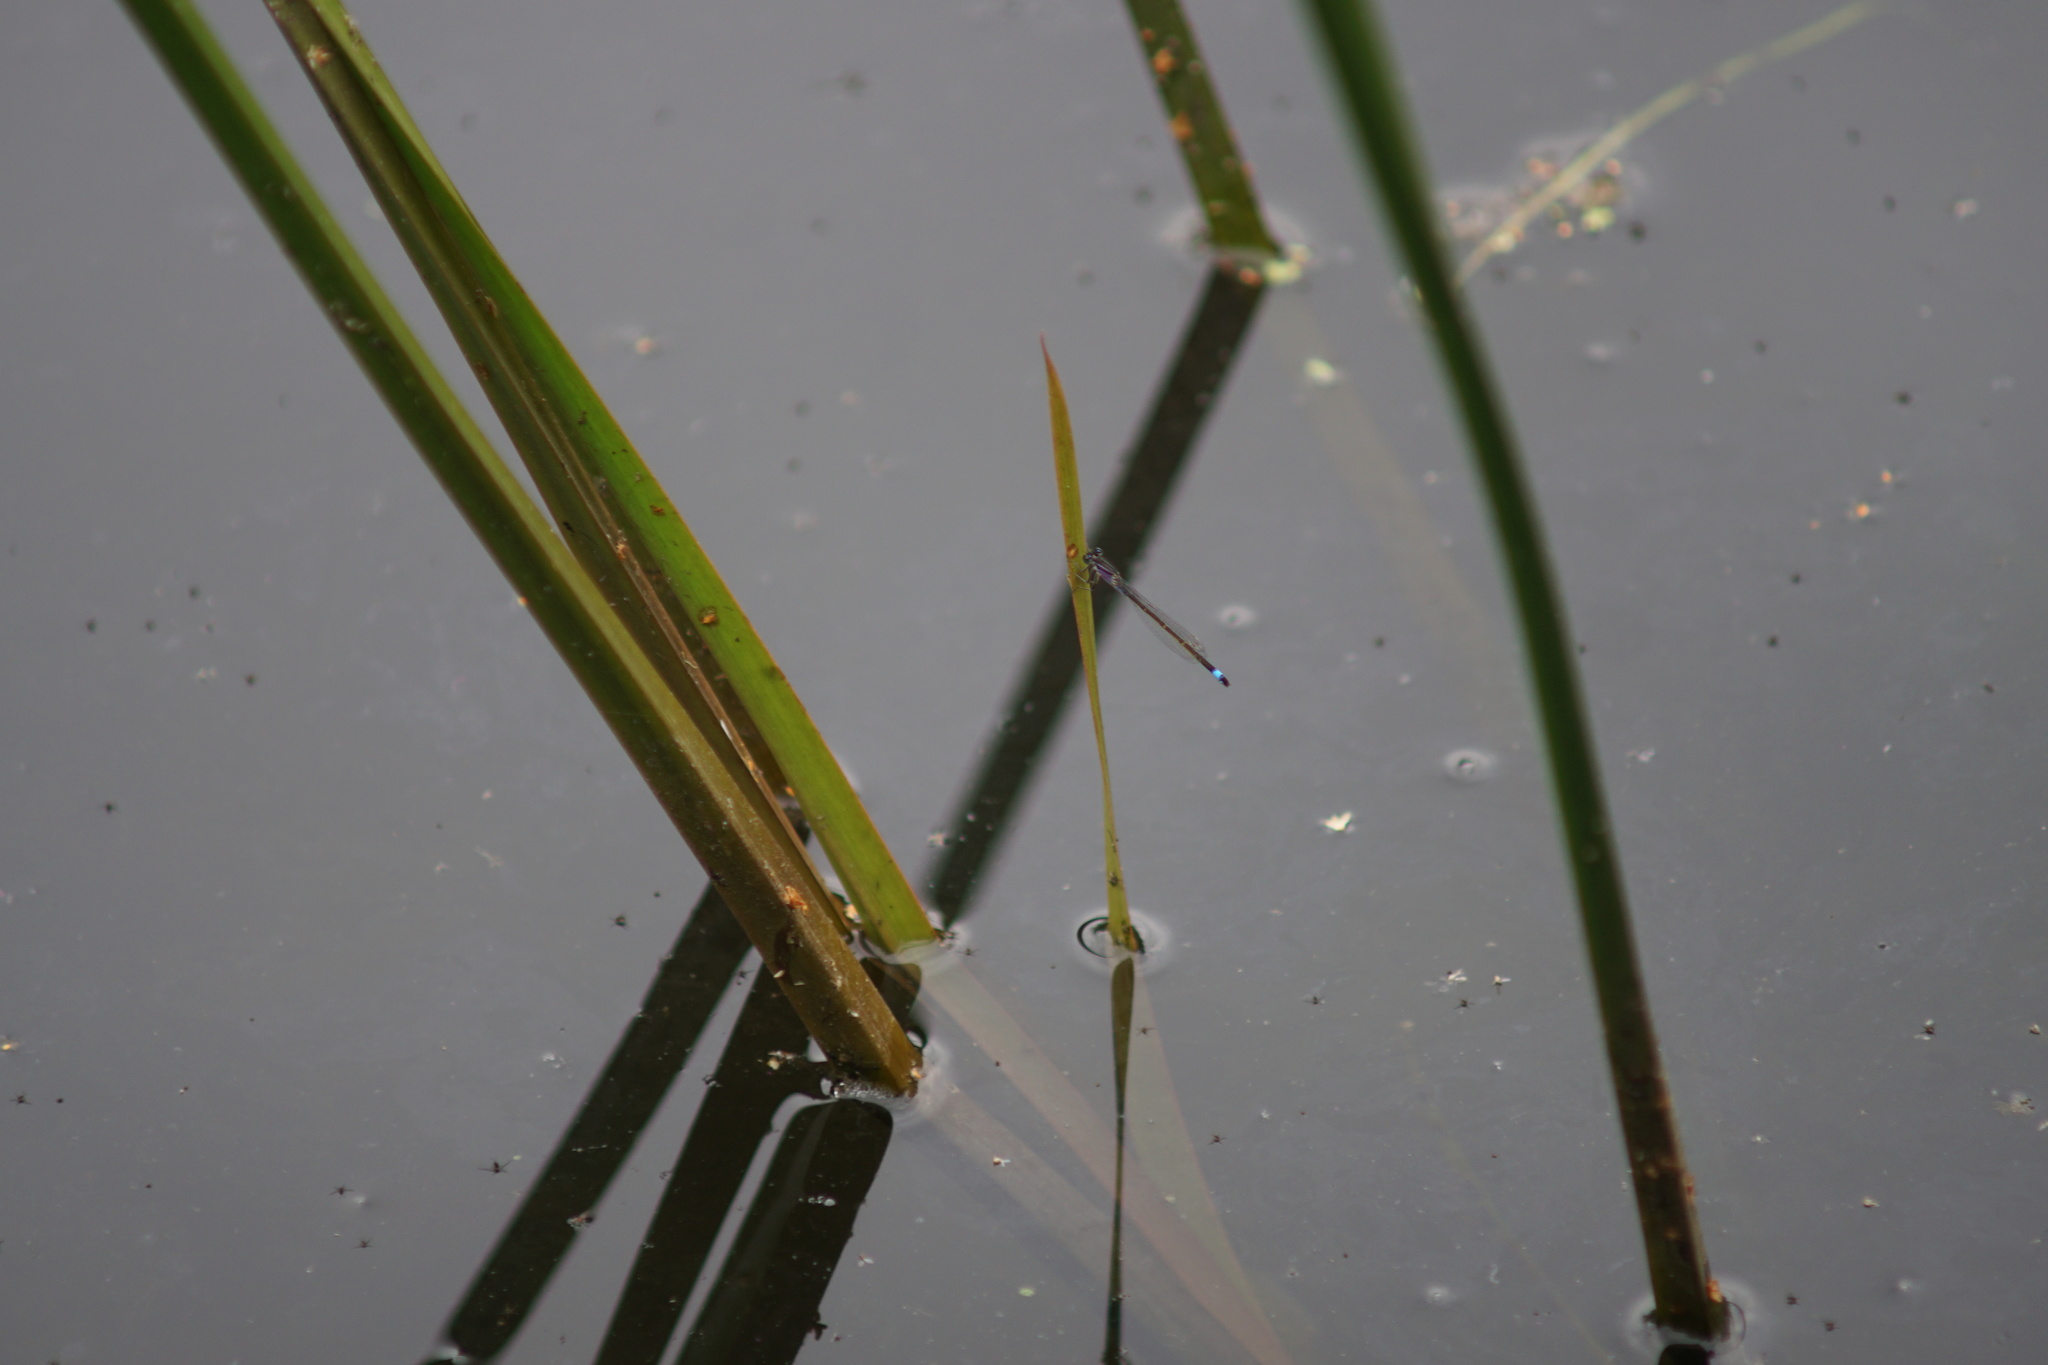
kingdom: Animalia
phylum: Arthropoda
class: Insecta
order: Odonata
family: Coenagrionidae
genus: Ischnura
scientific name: Ischnura elegans
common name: Blue-tailed damselfly
